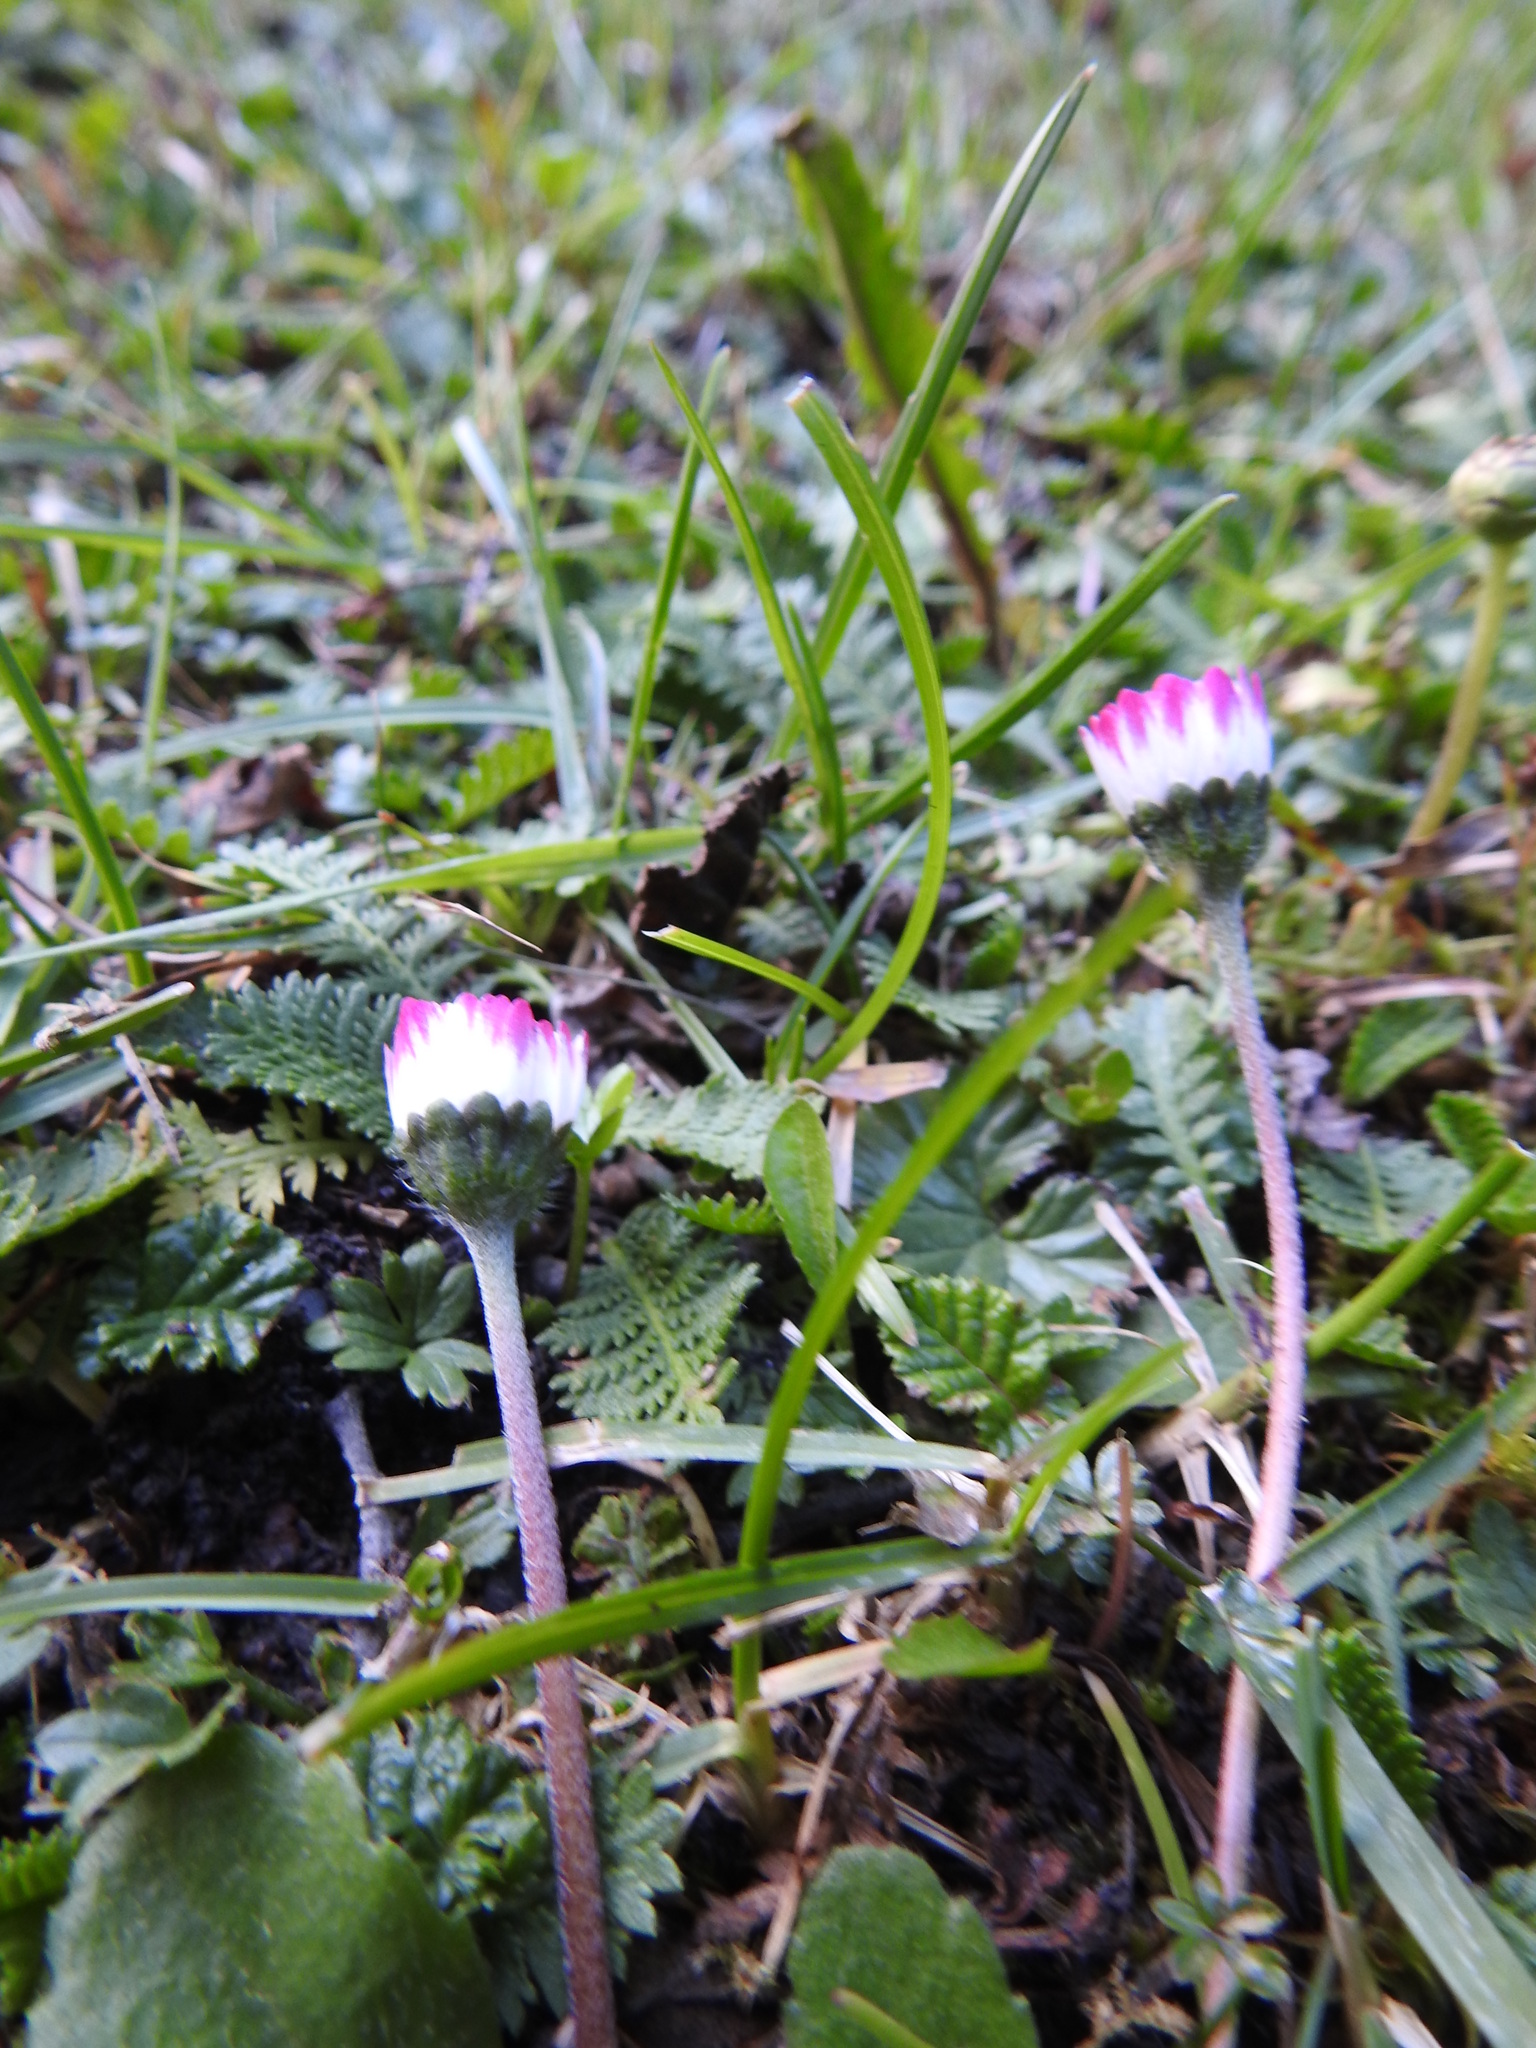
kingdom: Plantae
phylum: Tracheophyta
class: Magnoliopsida
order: Asterales
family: Asteraceae
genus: Bellis
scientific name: Bellis perennis
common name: Lawndaisy
